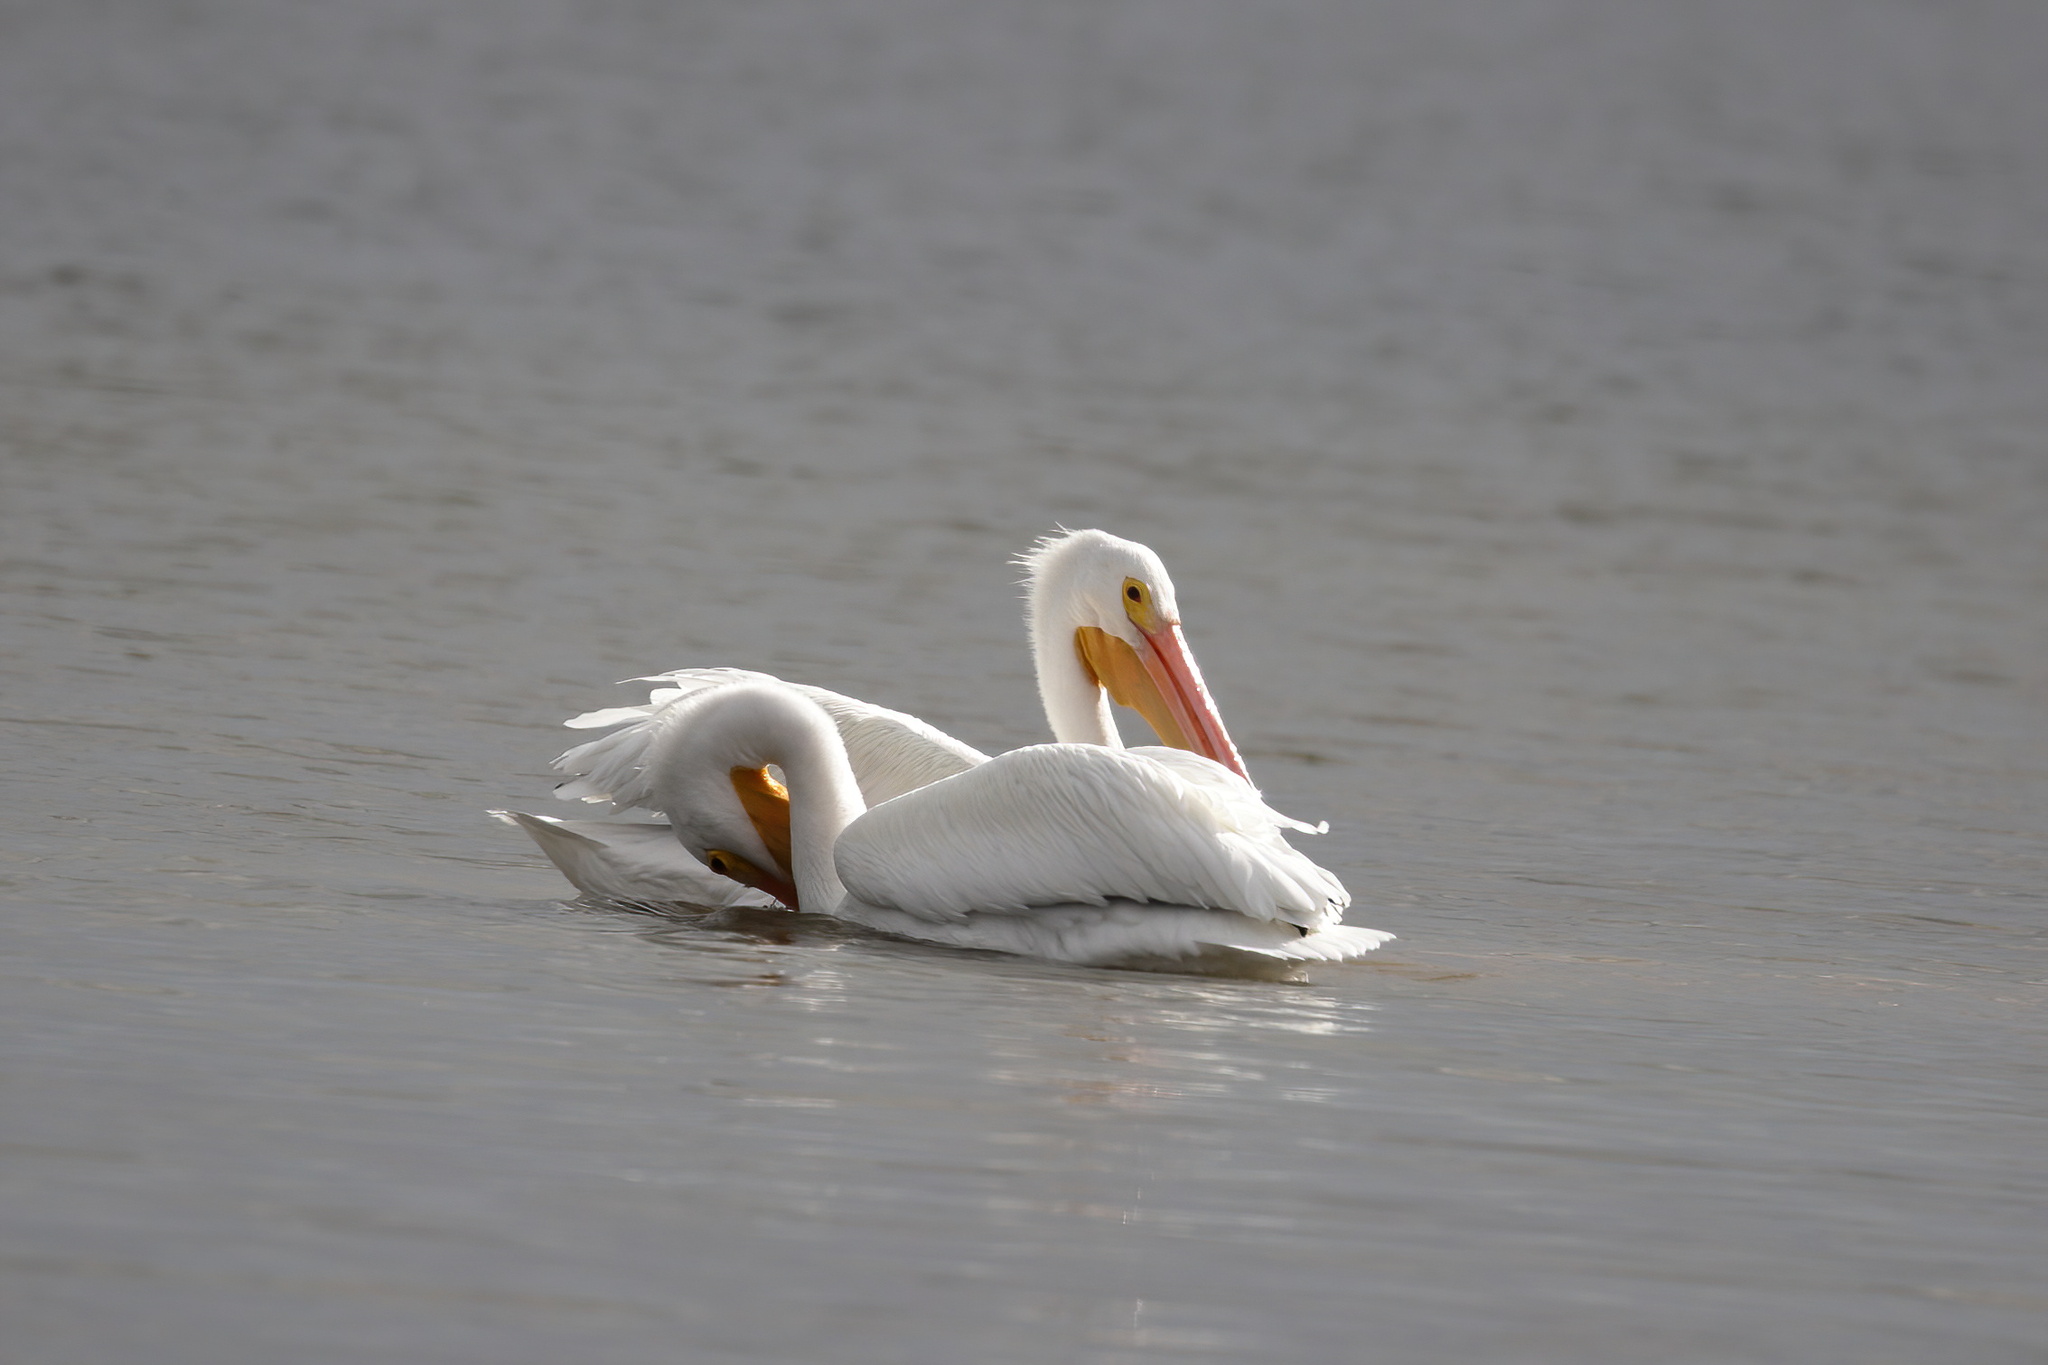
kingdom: Animalia
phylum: Chordata
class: Aves
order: Pelecaniformes
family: Pelecanidae
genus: Pelecanus
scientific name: Pelecanus erythrorhynchos
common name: American white pelican
